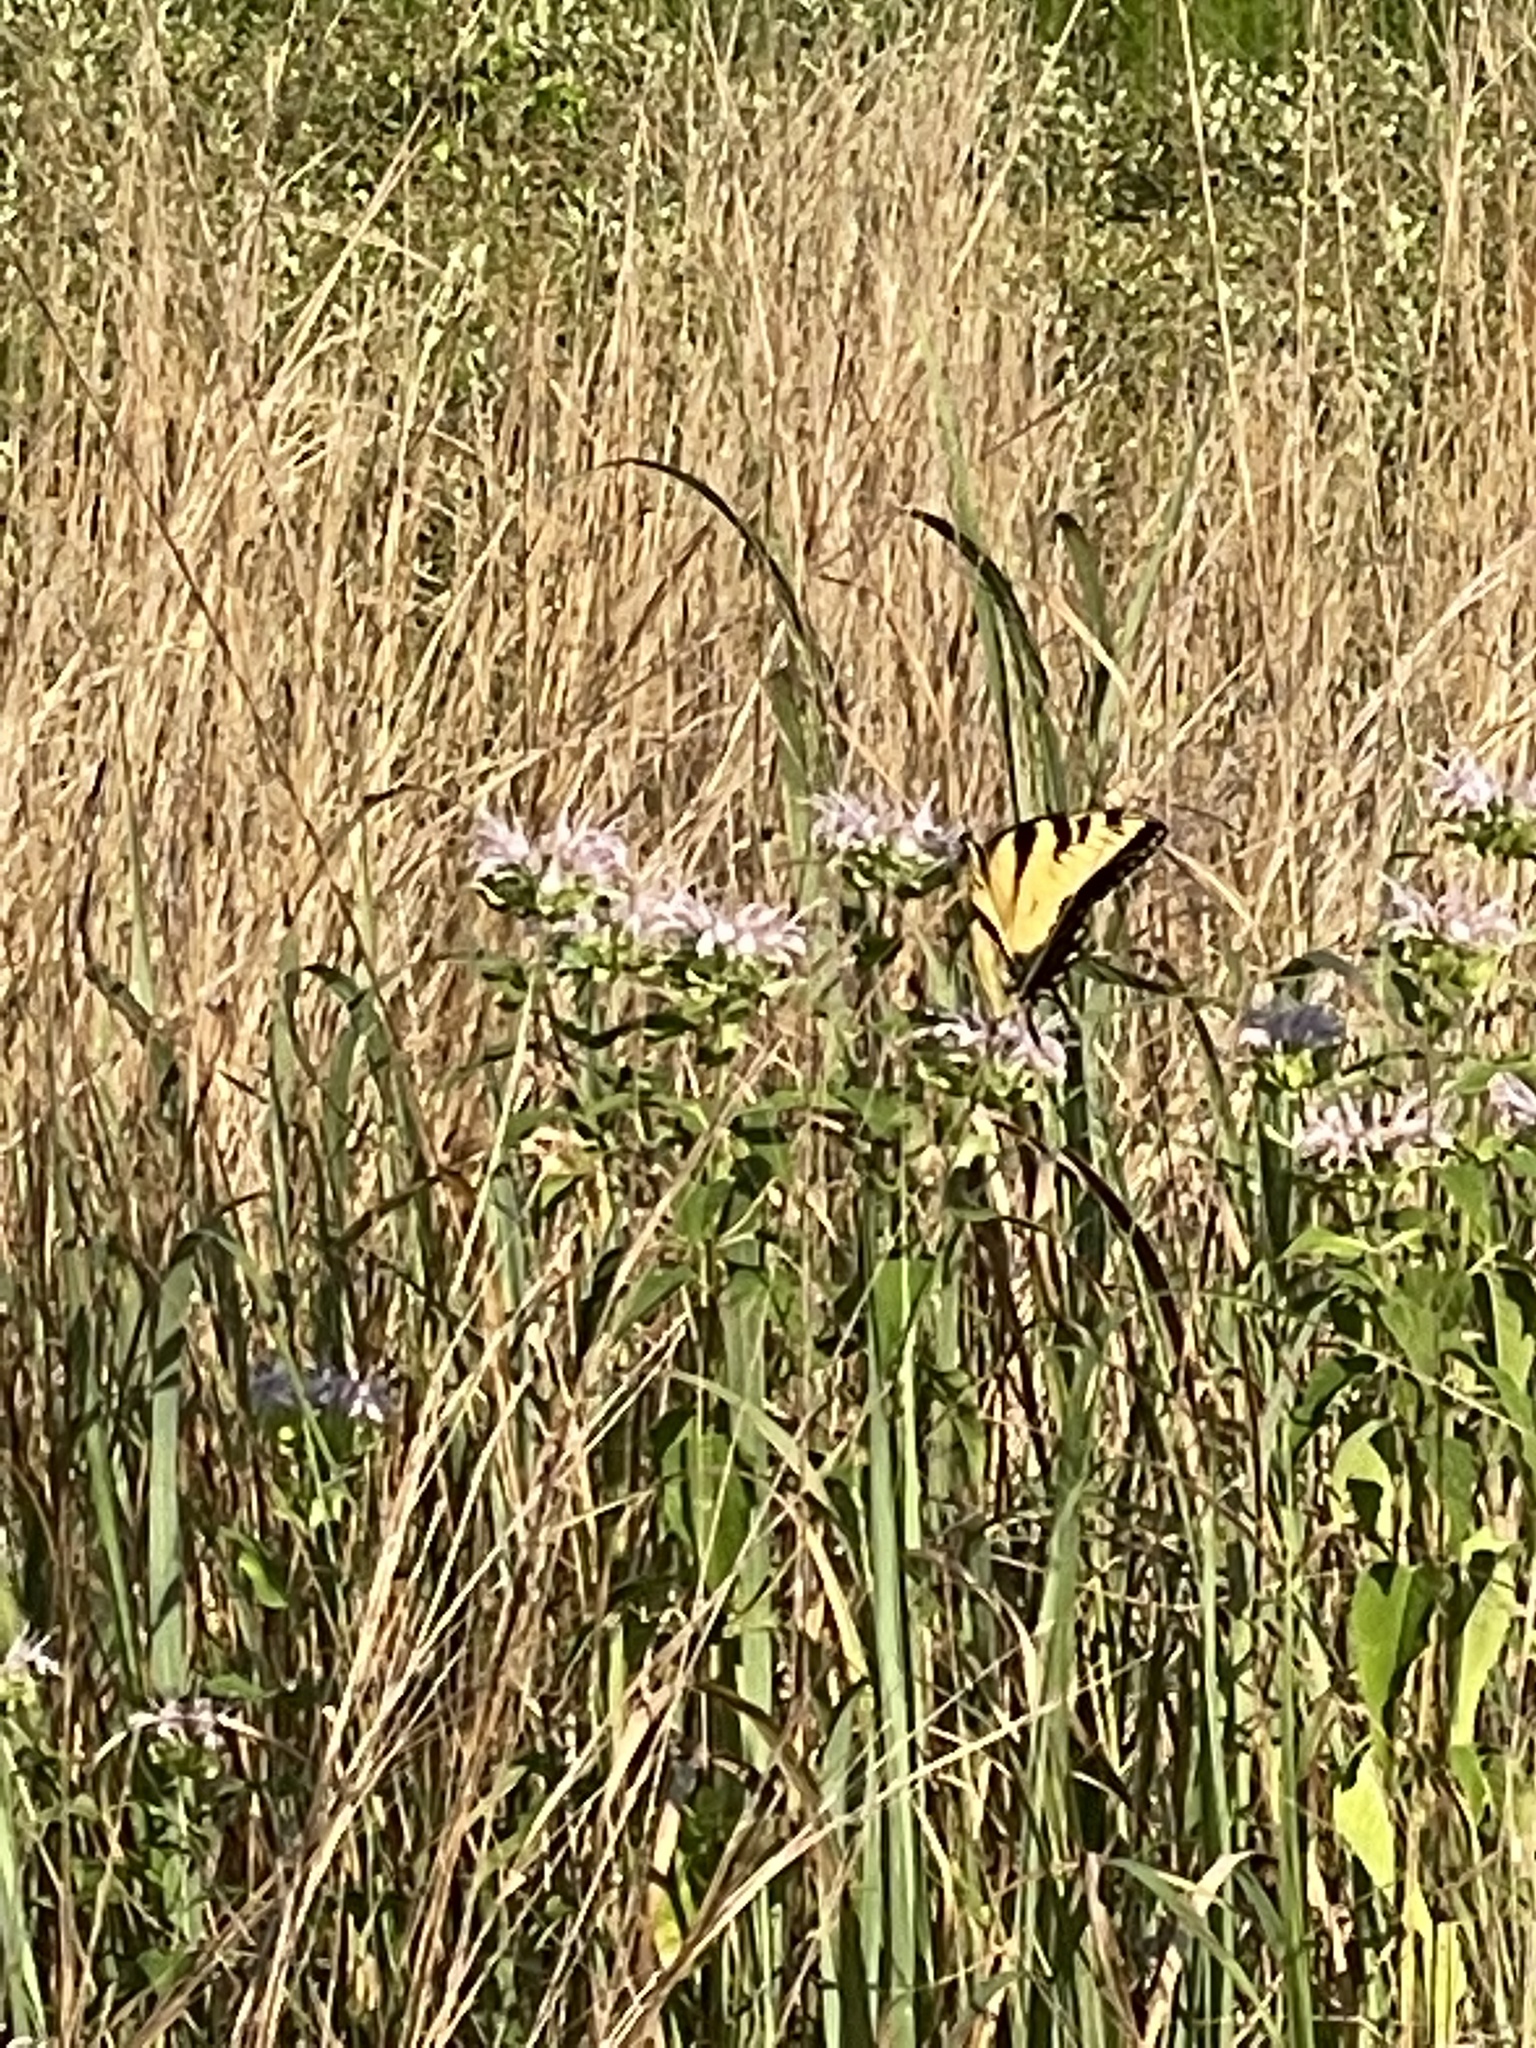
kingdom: Animalia
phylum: Arthropoda
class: Insecta
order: Lepidoptera
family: Papilionidae
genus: Papilio
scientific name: Papilio glaucus
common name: Tiger swallowtail
